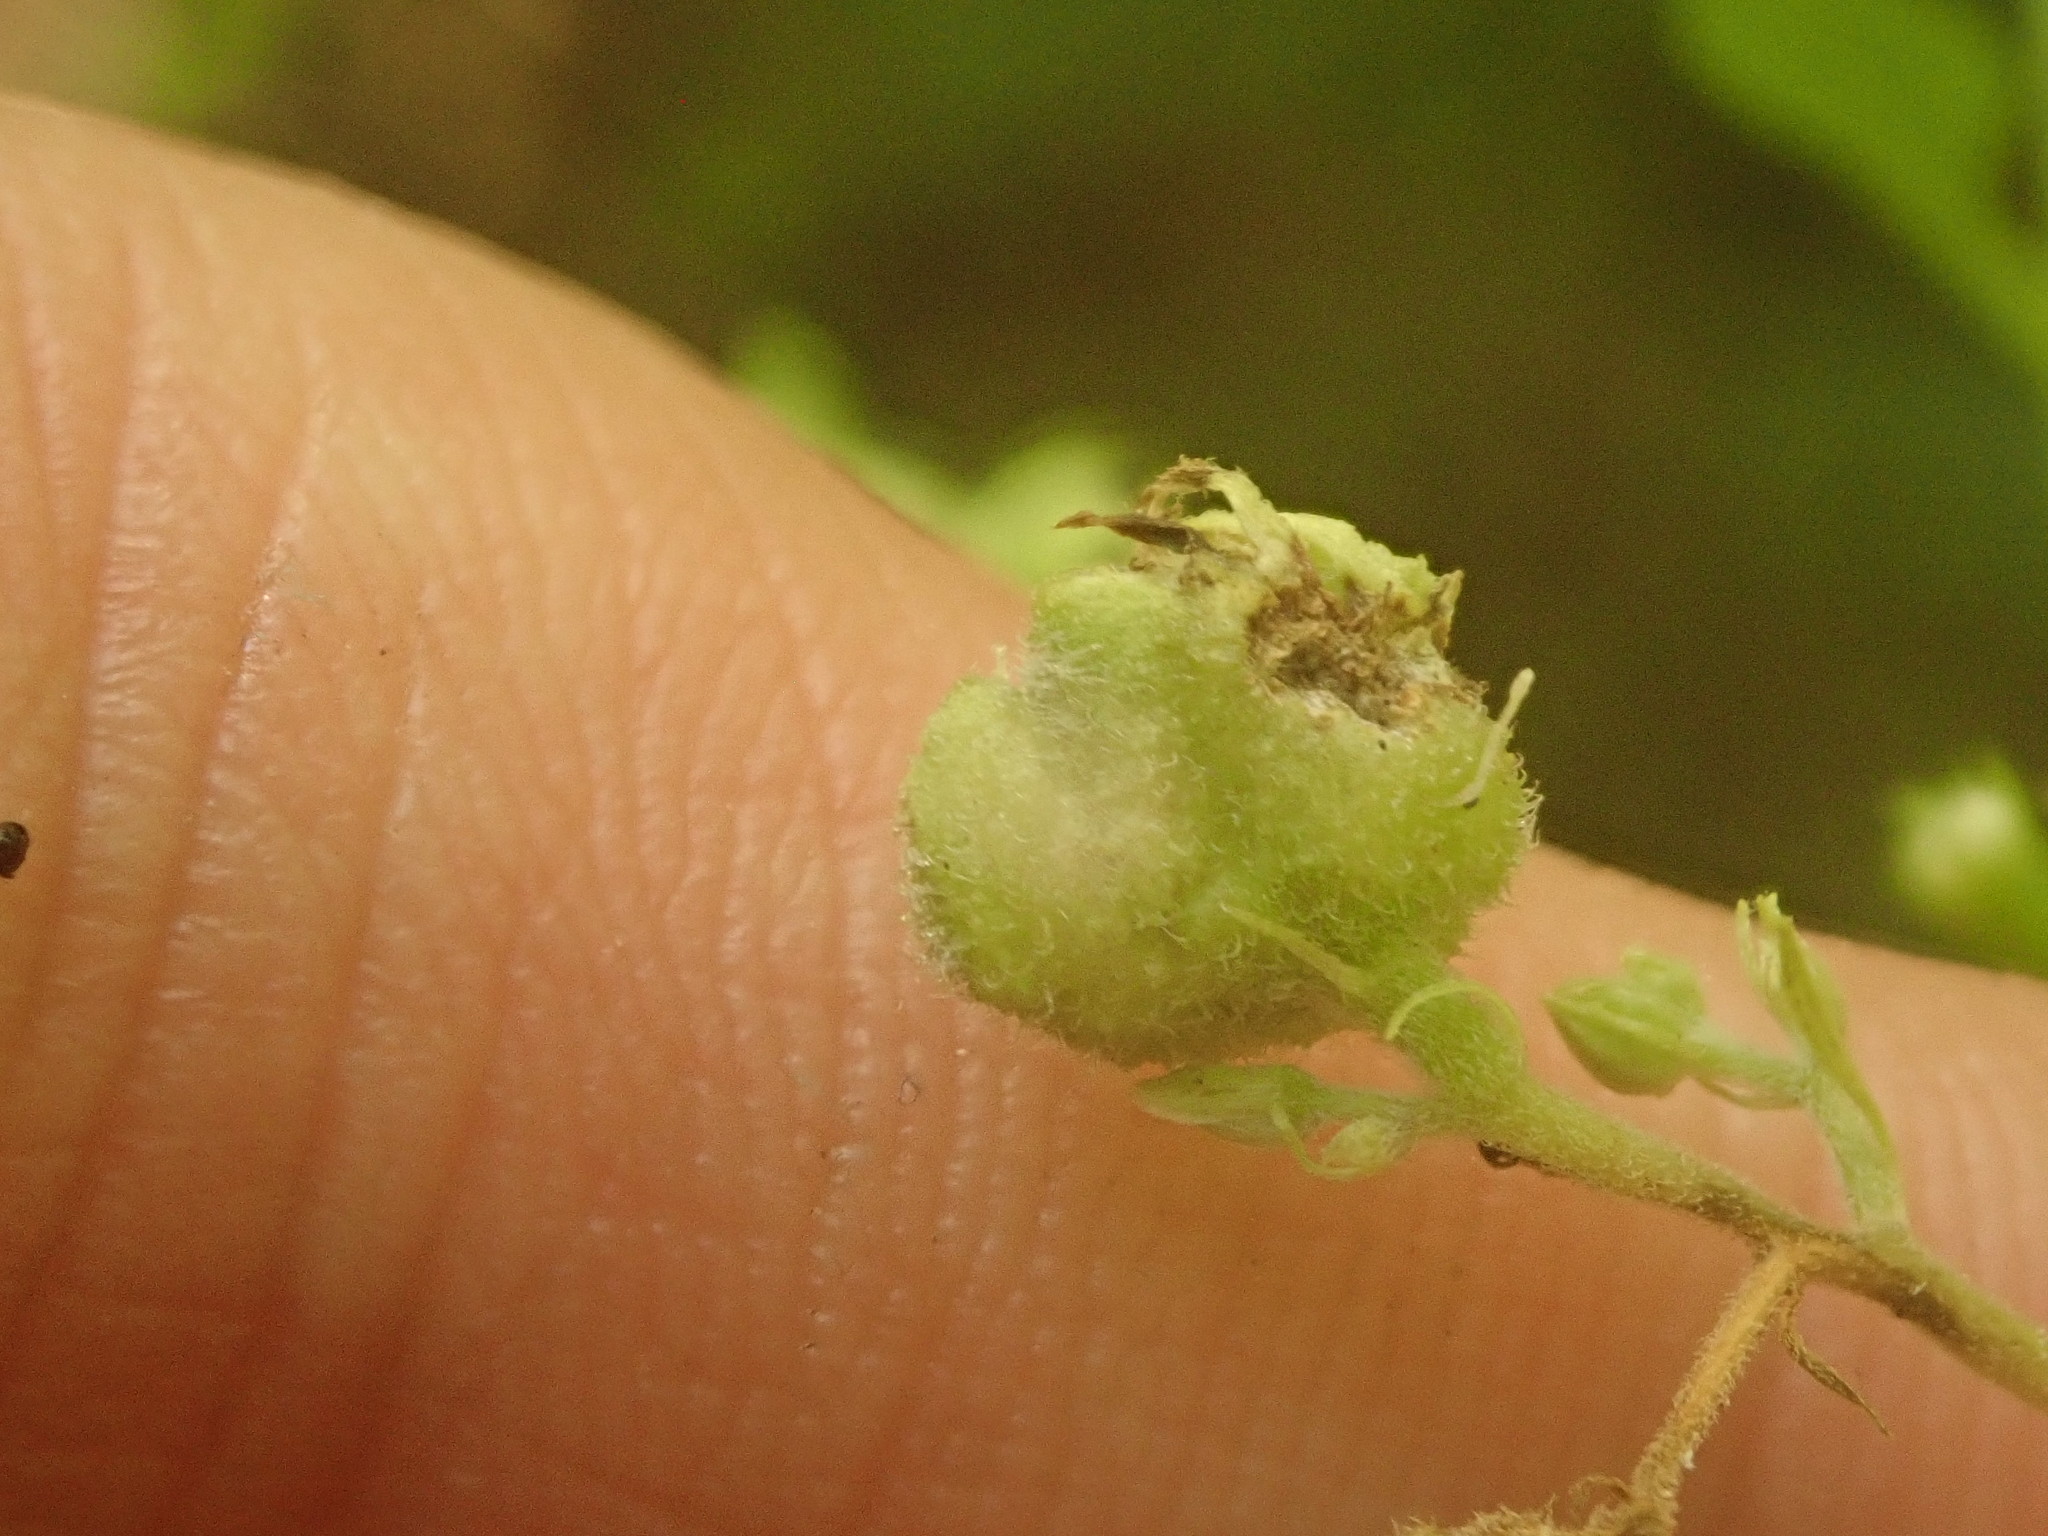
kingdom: Animalia
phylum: Arthropoda
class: Insecta
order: Diptera
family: Cecidomyiidae
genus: Schizomyia
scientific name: Schizomyia eupatoriflorae
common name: Boneset flower gall midge
